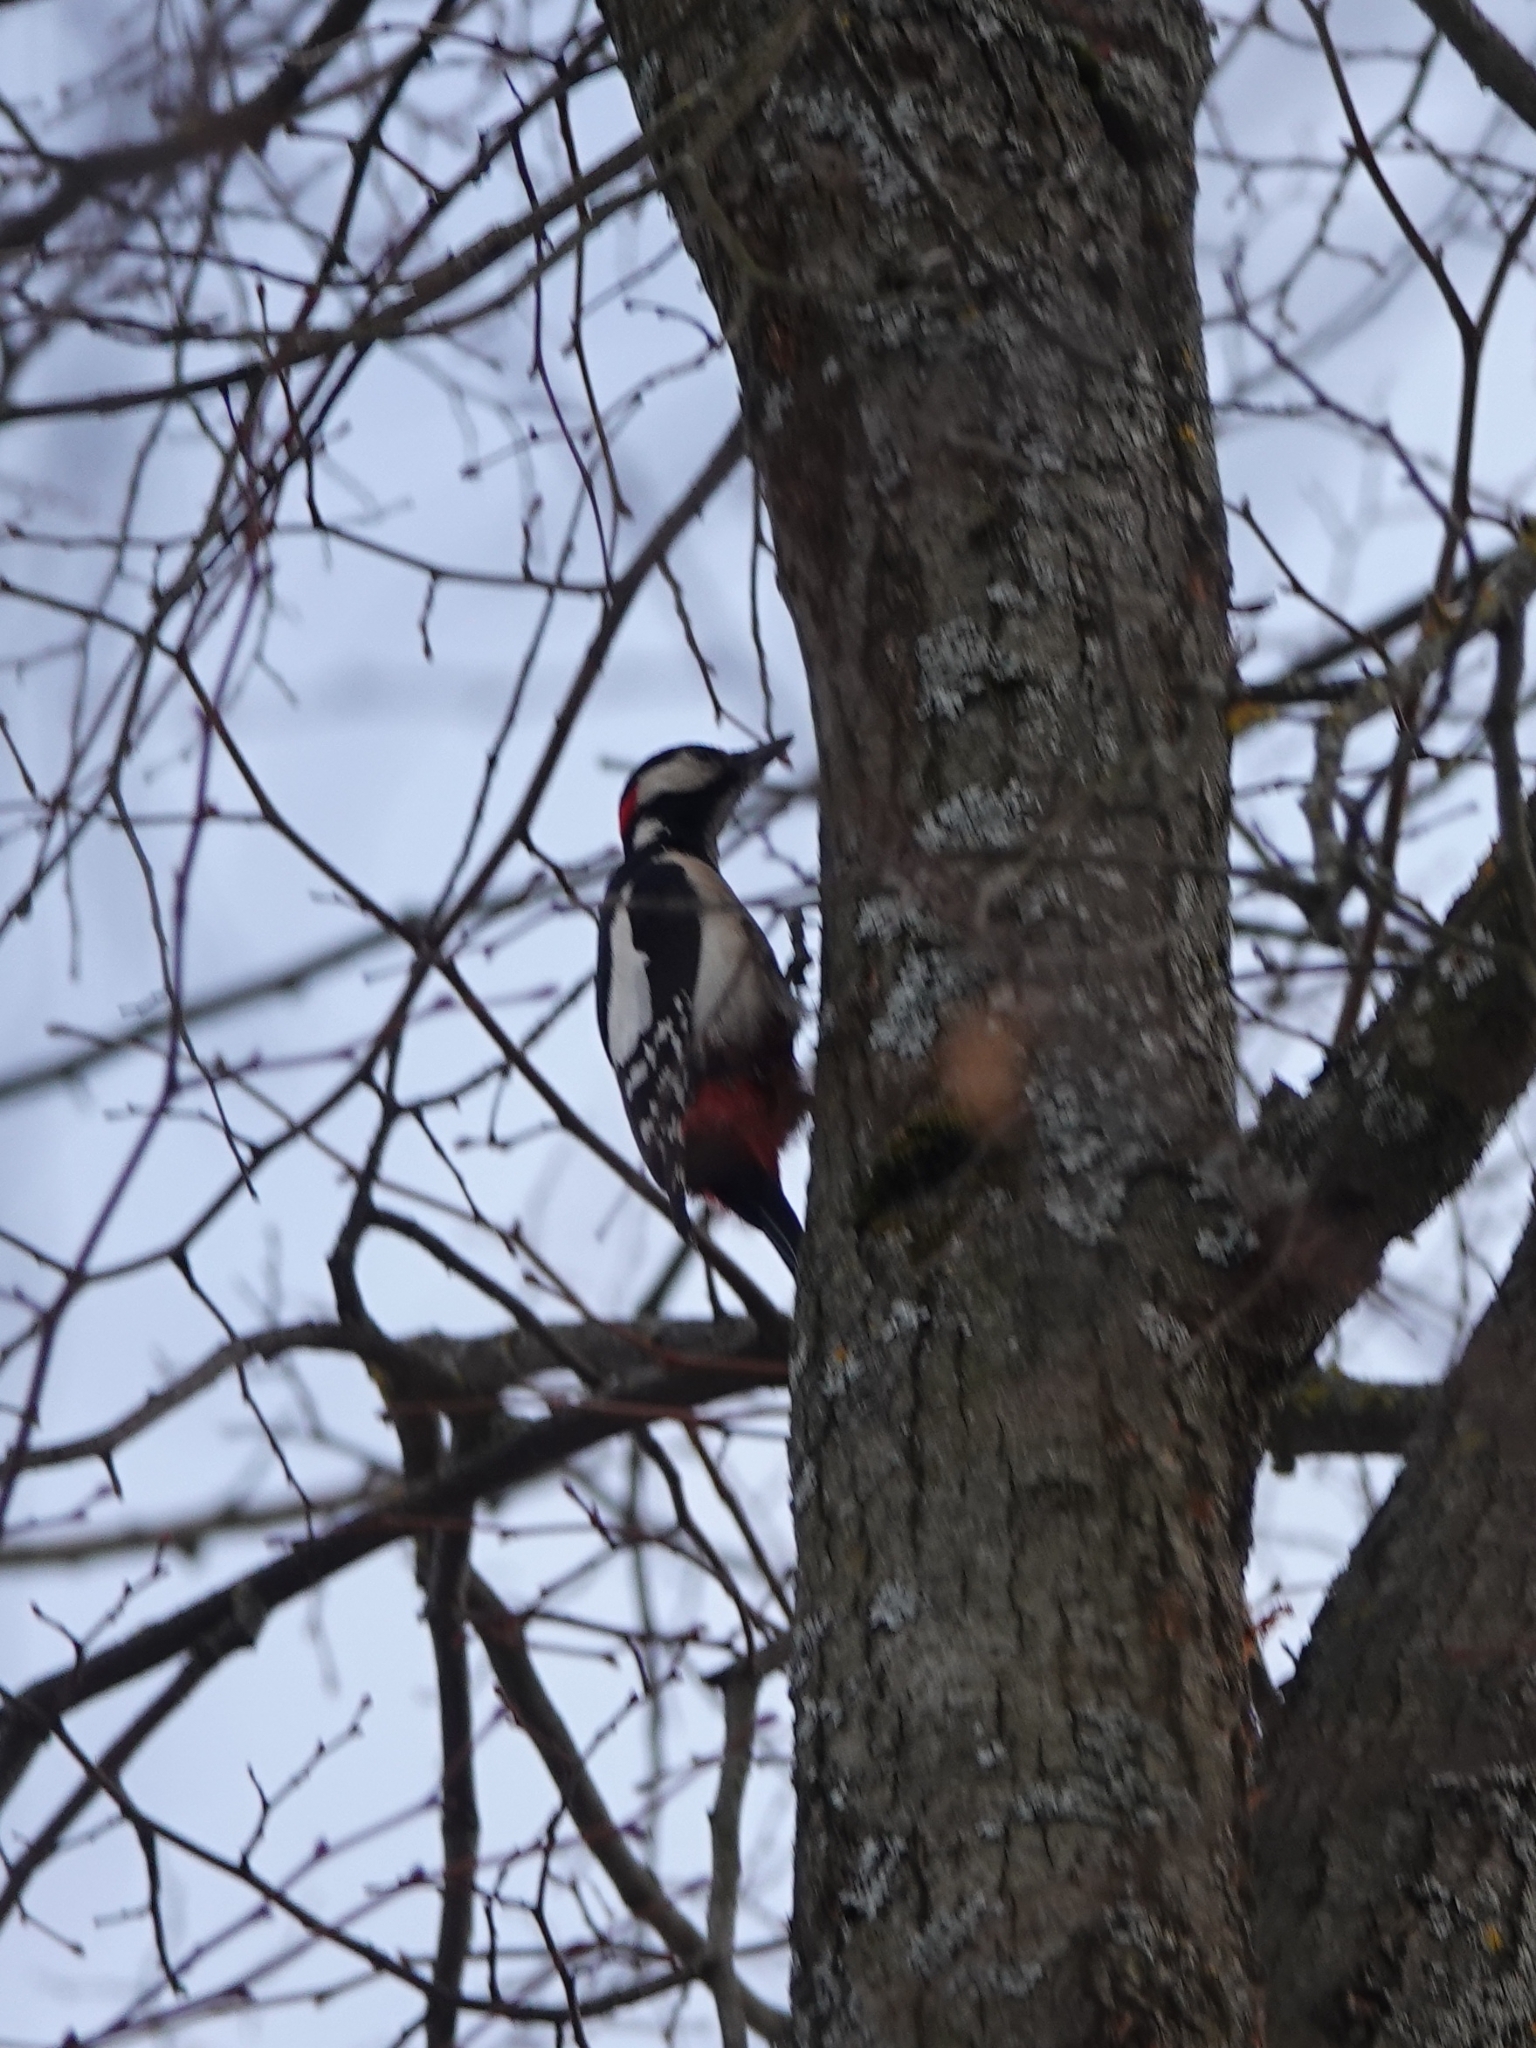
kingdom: Animalia
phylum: Chordata
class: Aves
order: Piciformes
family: Picidae
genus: Dendrocopos
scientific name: Dendrocopos major
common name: Great spotted woodpecker
